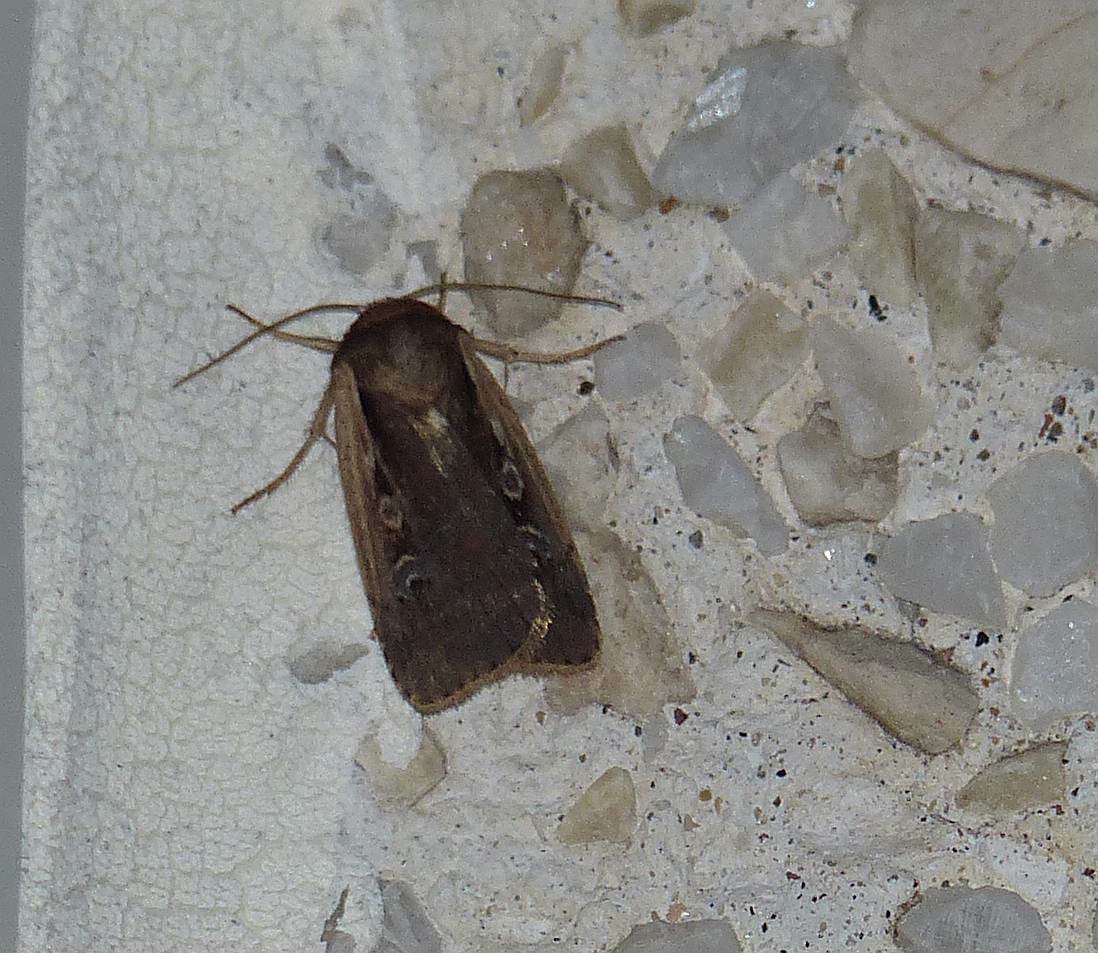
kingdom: Animalia
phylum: Arthropoda
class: Insecta
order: Lepidoptera
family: Noctuidae
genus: Ochropleura
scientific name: Ochropleura implecta
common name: Flame-shouldered dart
